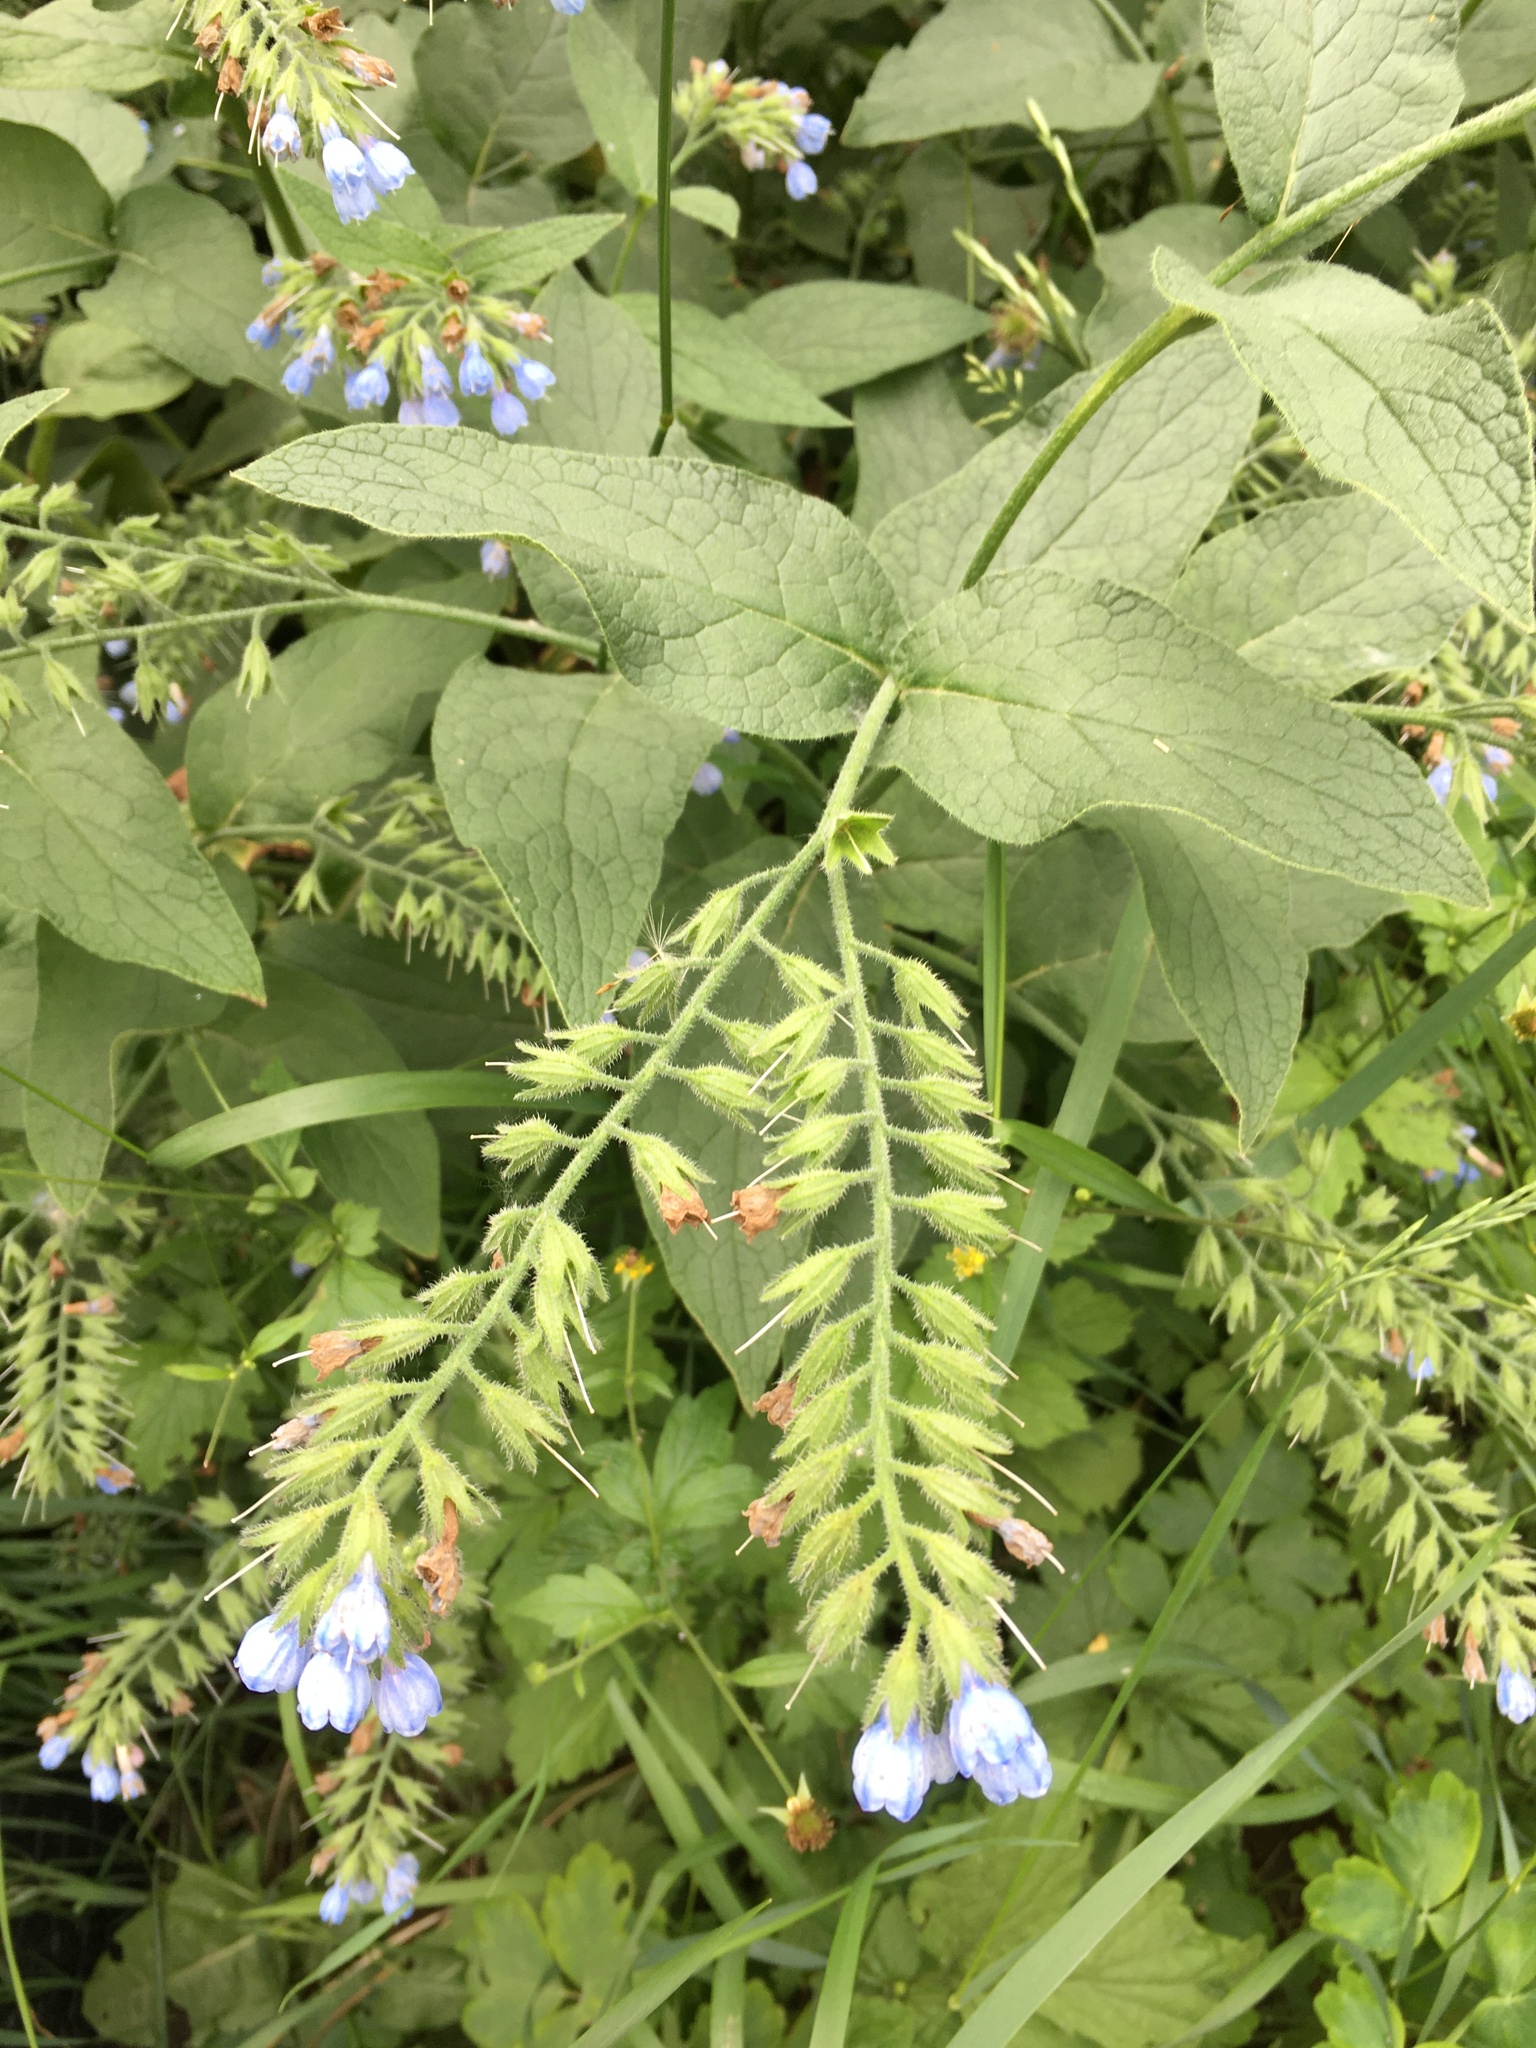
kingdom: Plantae
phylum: Tracheophyta
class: Magnoliopsida
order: Boraginales
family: Boraginaceae
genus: Symphytum
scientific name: Symphytum caucasicum
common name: Caucasian comfrey
